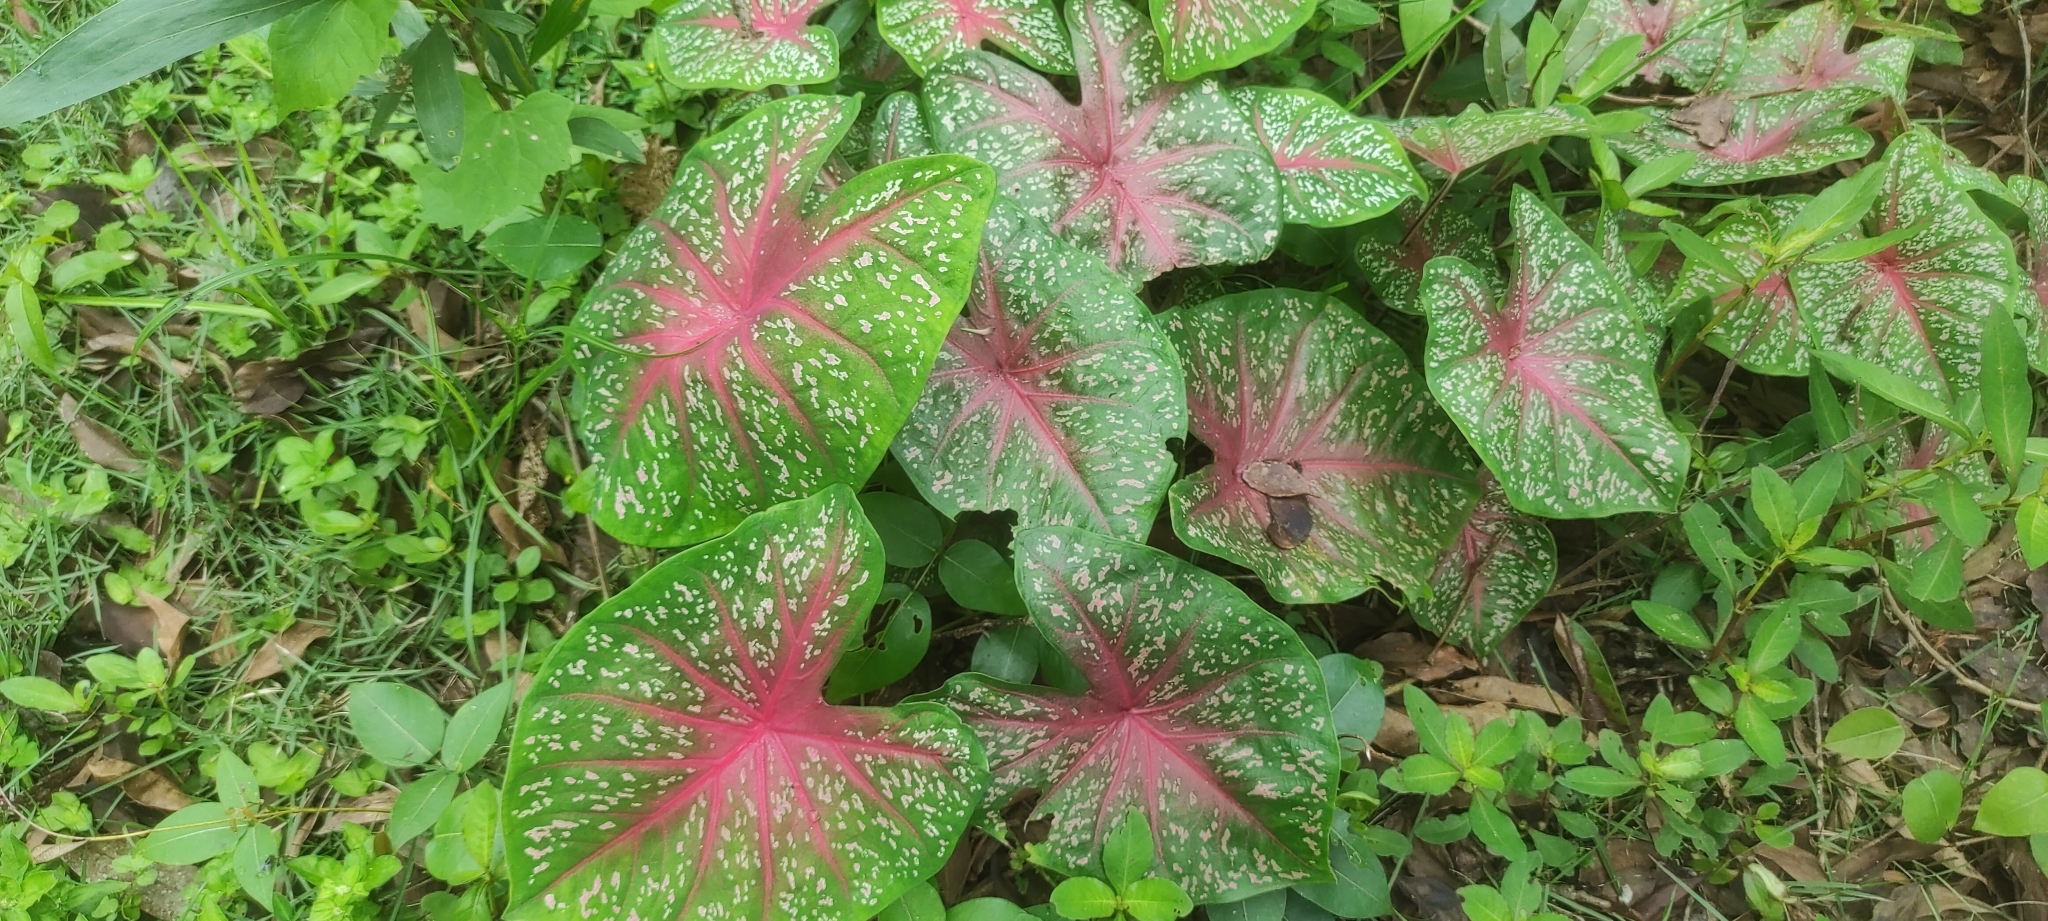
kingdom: Plantae
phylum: Tracheophyta
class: Liliopsida
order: Alismatales
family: Araceae
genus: Caladium
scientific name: Caladium bicolor
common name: Artist's pallet
